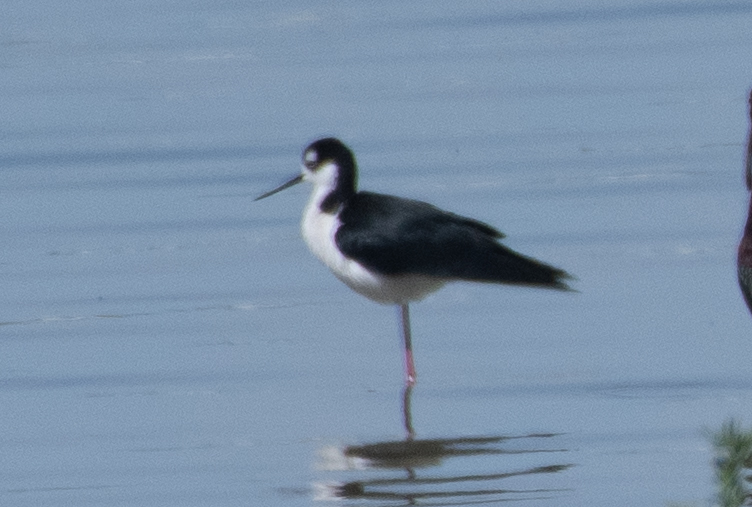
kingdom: Animalia
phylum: Chordata
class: Aves
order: Charadriiformes
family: Recurvirostridae
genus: Himantopus
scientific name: Himantopus mexicanus
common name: Black-necked stilt
